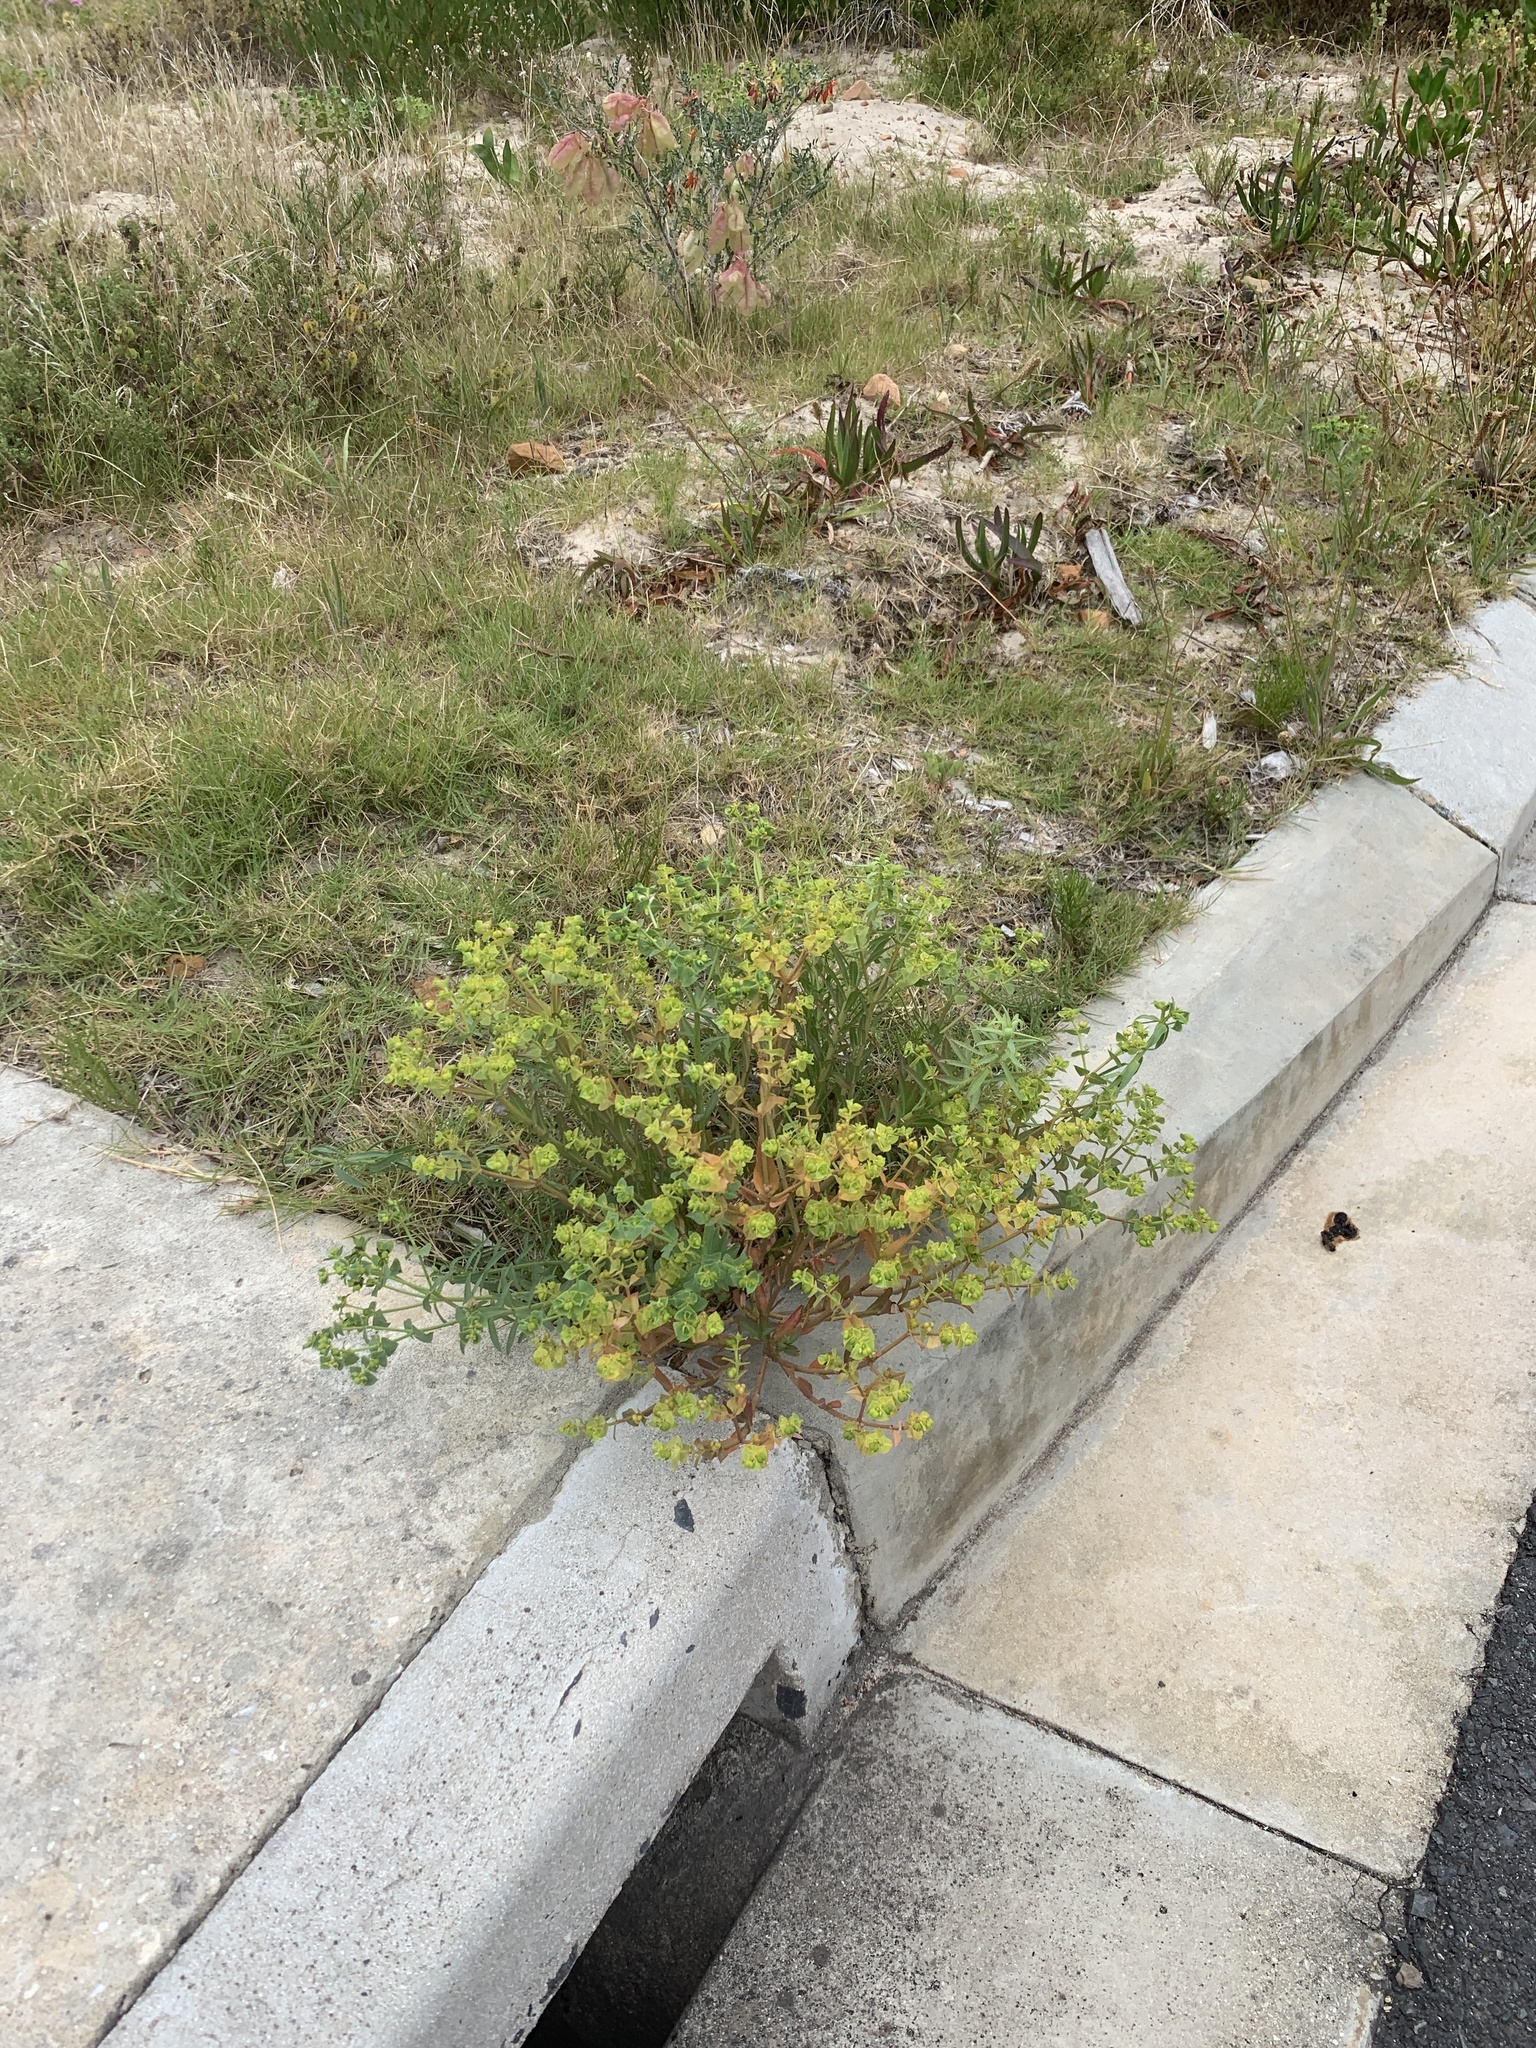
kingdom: Plantae
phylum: Tracheophyta
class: Magnoliopsida
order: Malpighiales
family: Euphorbiaceae
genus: Euphorbia
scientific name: Euphorbia terracina
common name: Geraldton carnation weed
